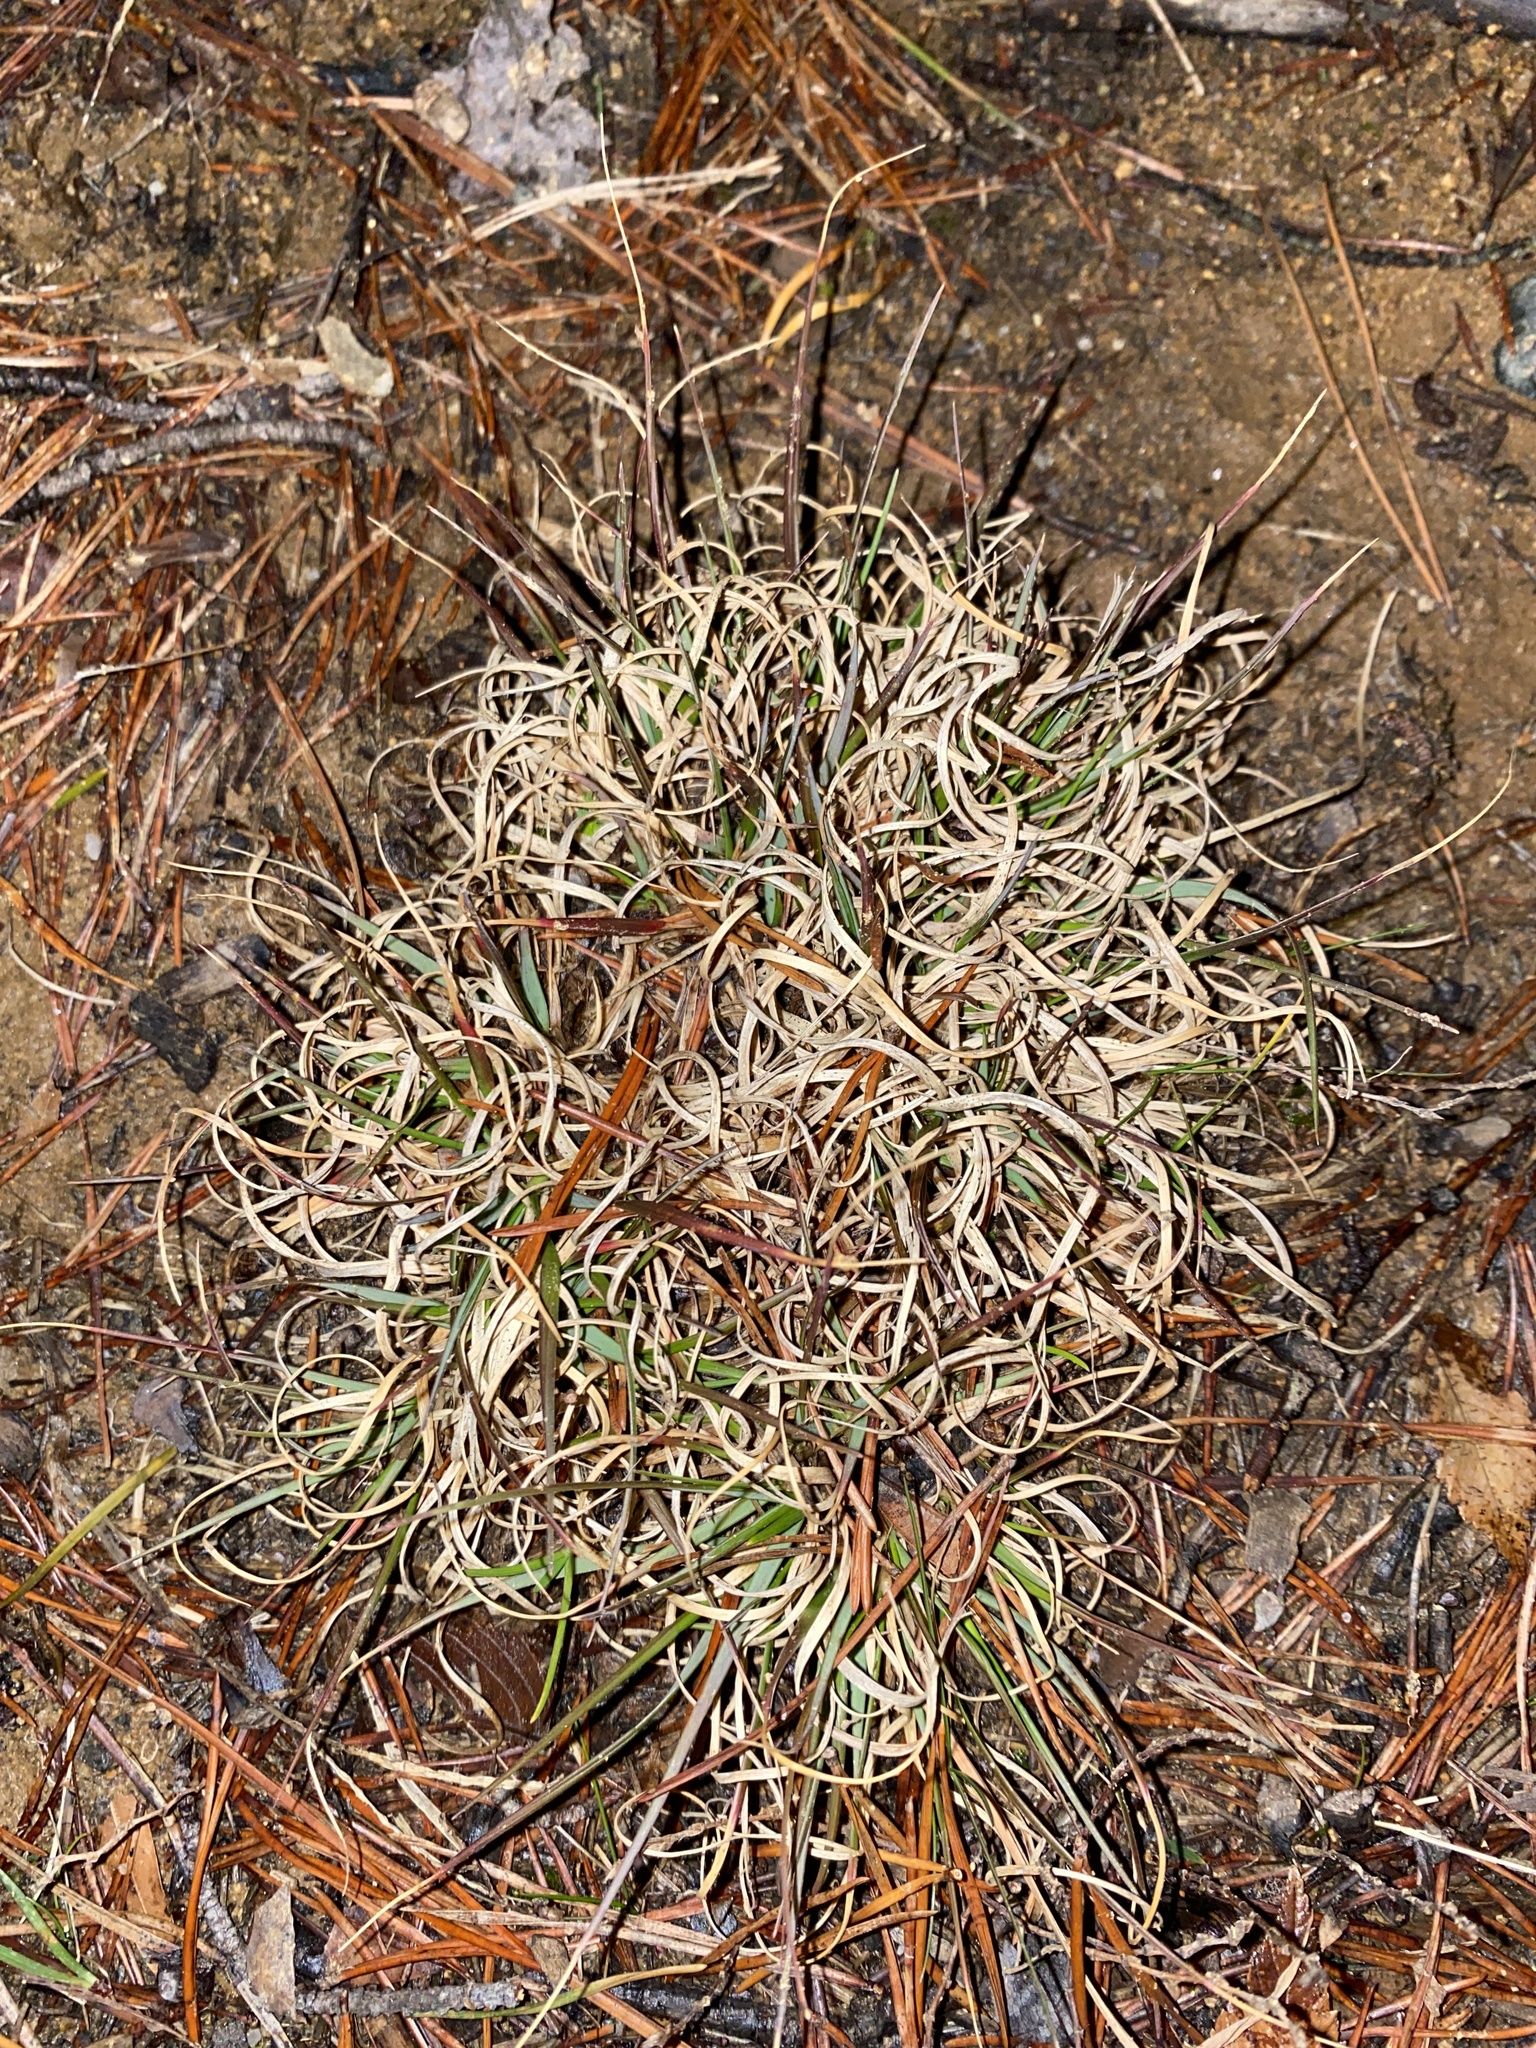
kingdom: Plantae
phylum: Tracheophyta
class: Liliopsida
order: Poales
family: Poaceae
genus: Danthonia
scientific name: Danthonia spicata
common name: Common wild oatgrass
